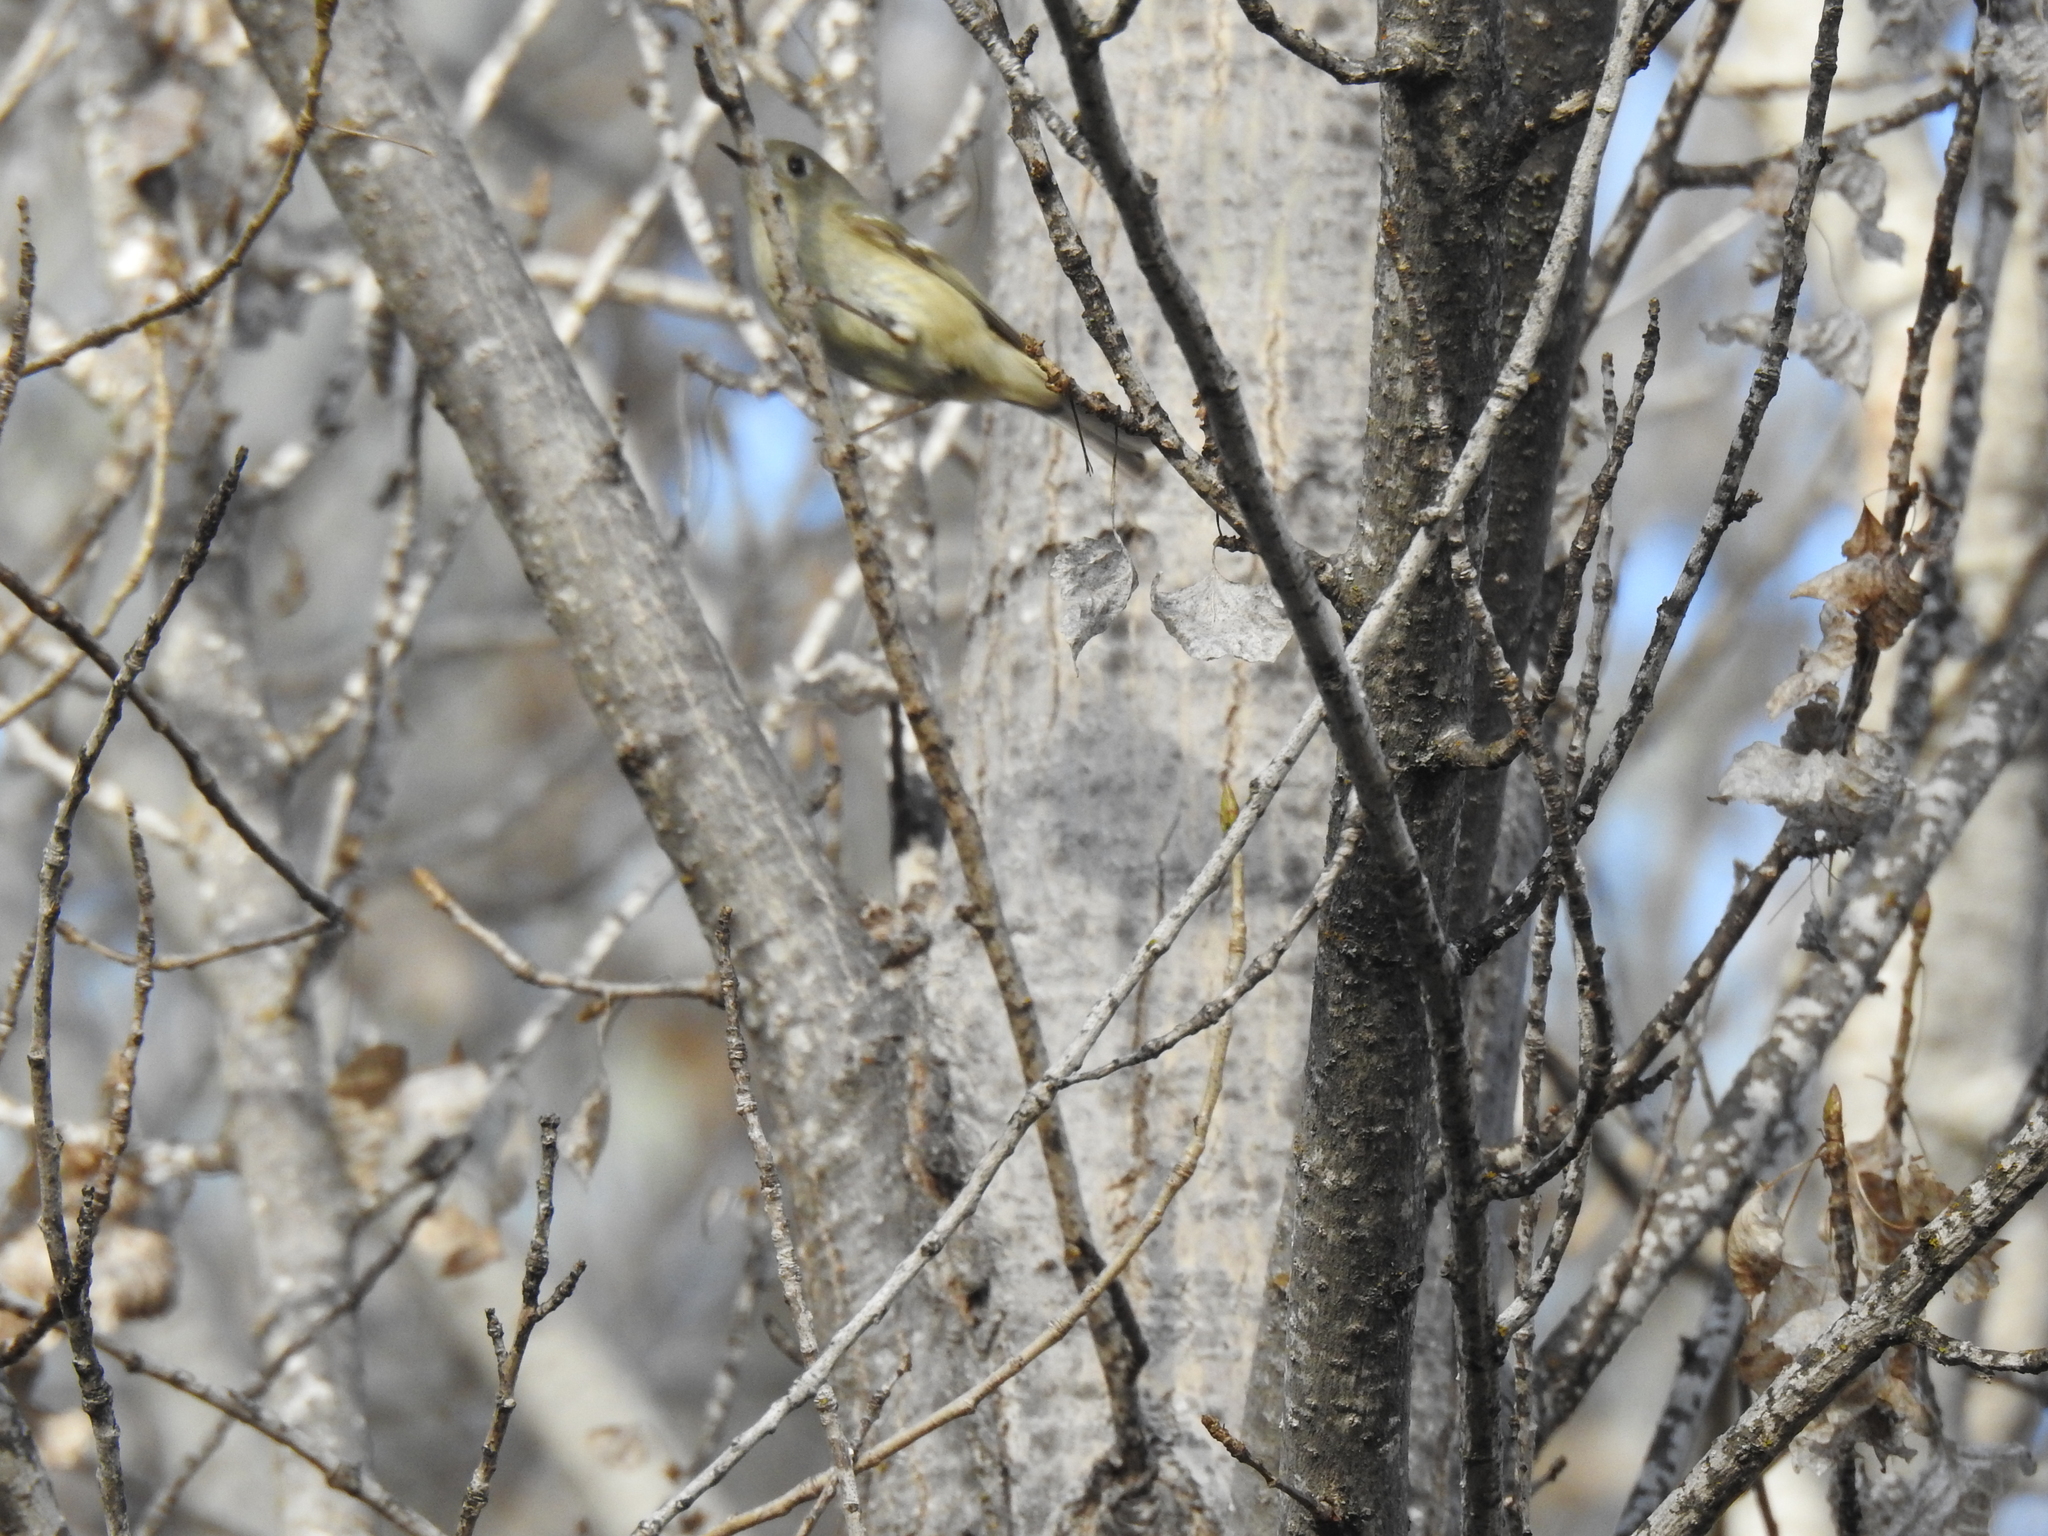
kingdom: Animalia
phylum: Chordata
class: Aves
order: Passeriformes
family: Regulidae
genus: Regulus
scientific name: Regulus calendula
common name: Ruby-crowned kinglet
